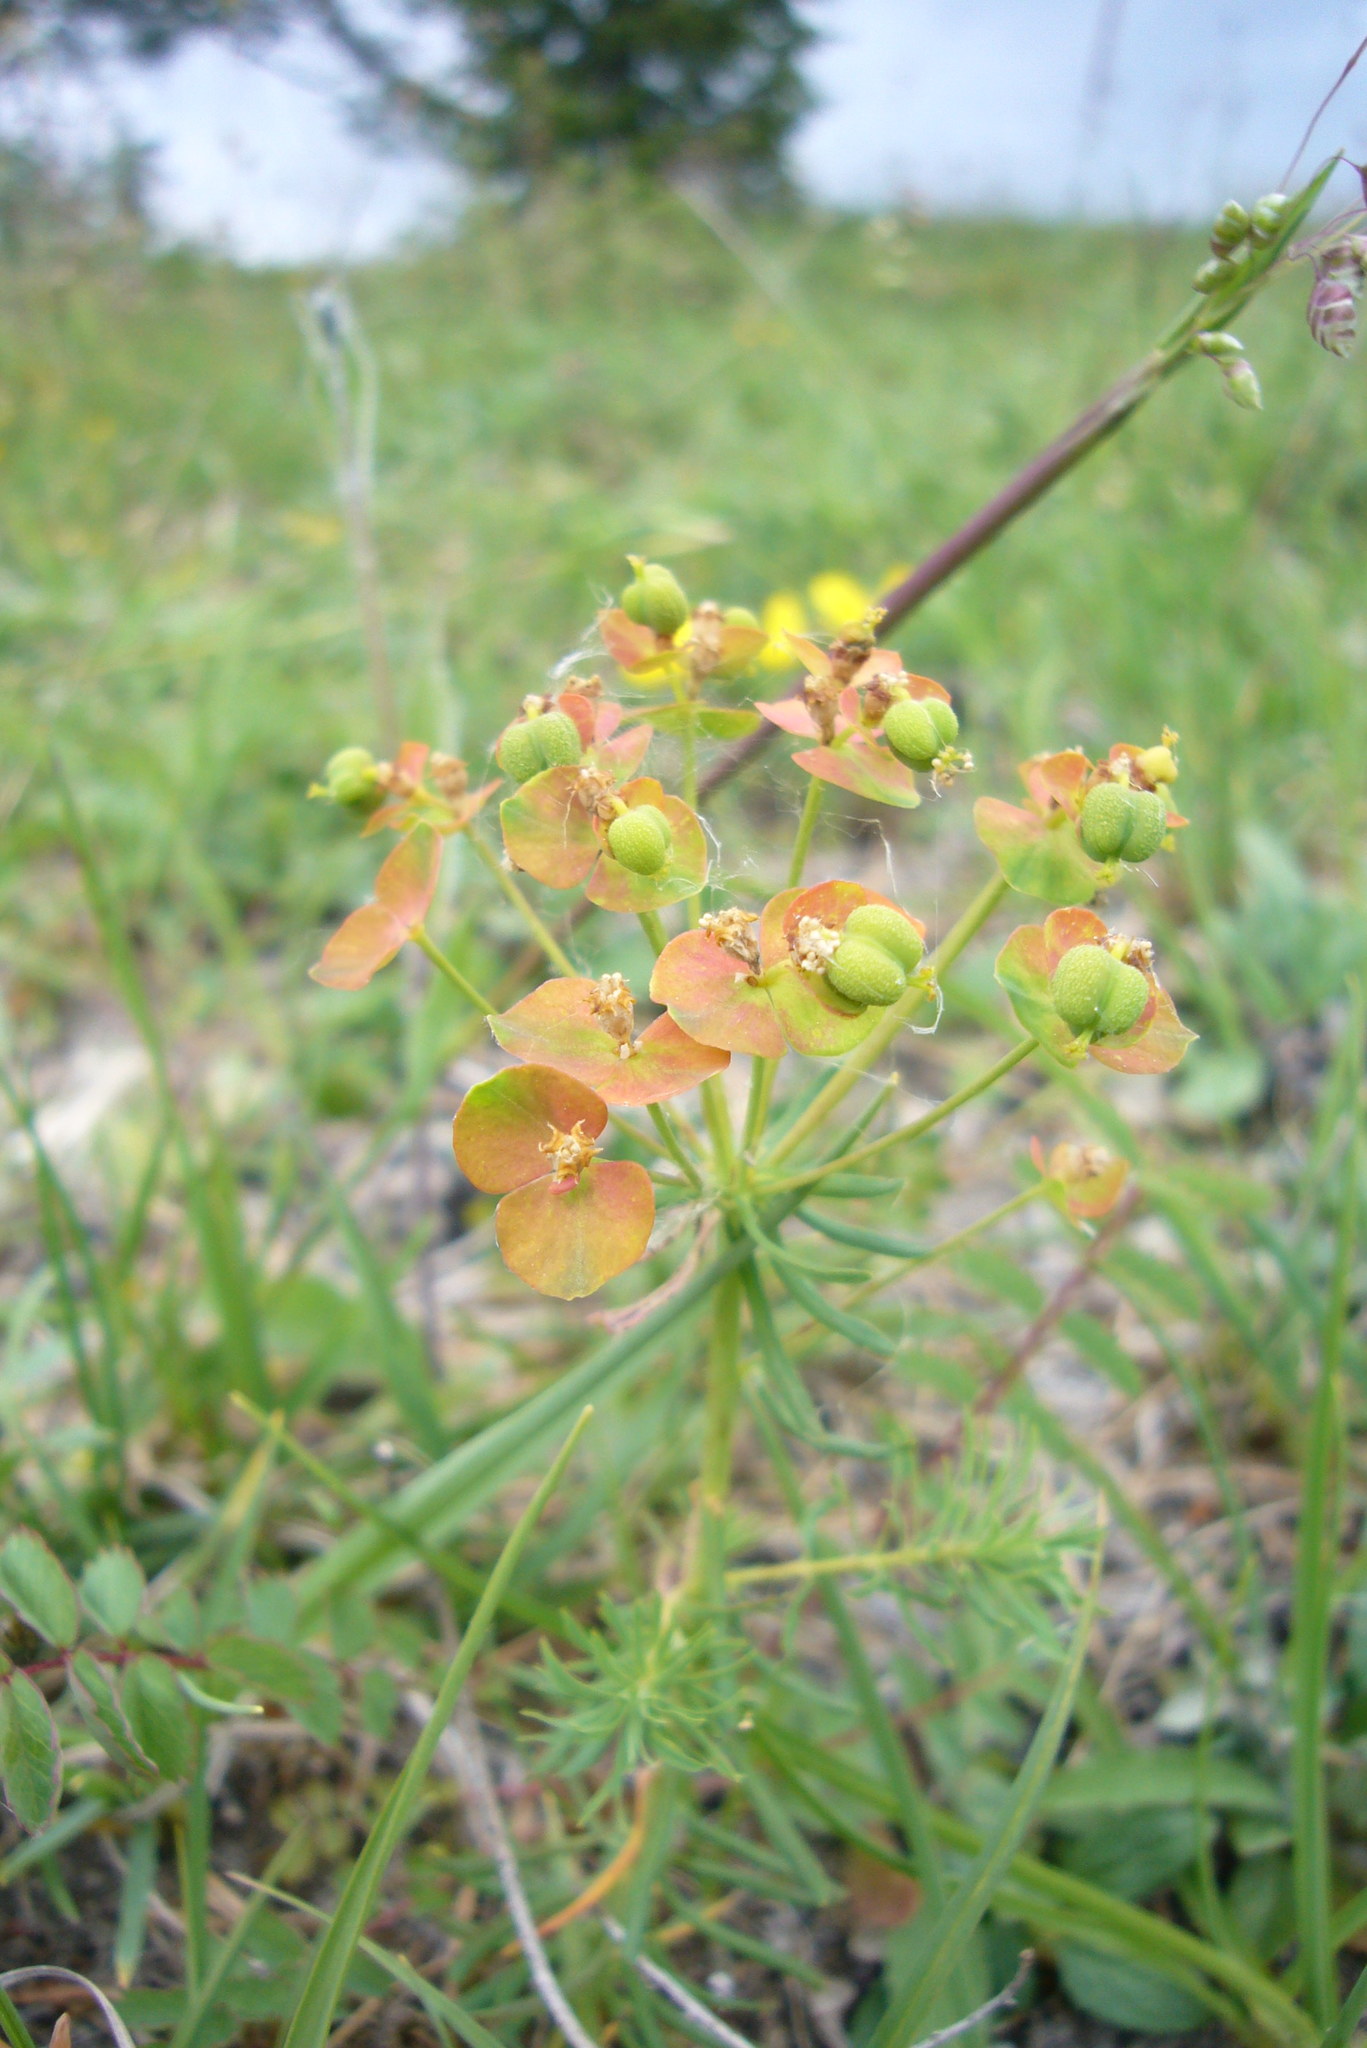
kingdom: Plantae
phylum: Tracheophyta
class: Magnoliopsida
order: Malpighiales
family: Euphorbiaceae
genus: Euphorbia
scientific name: Euphorbia cyparissias
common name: Cypress spurge
